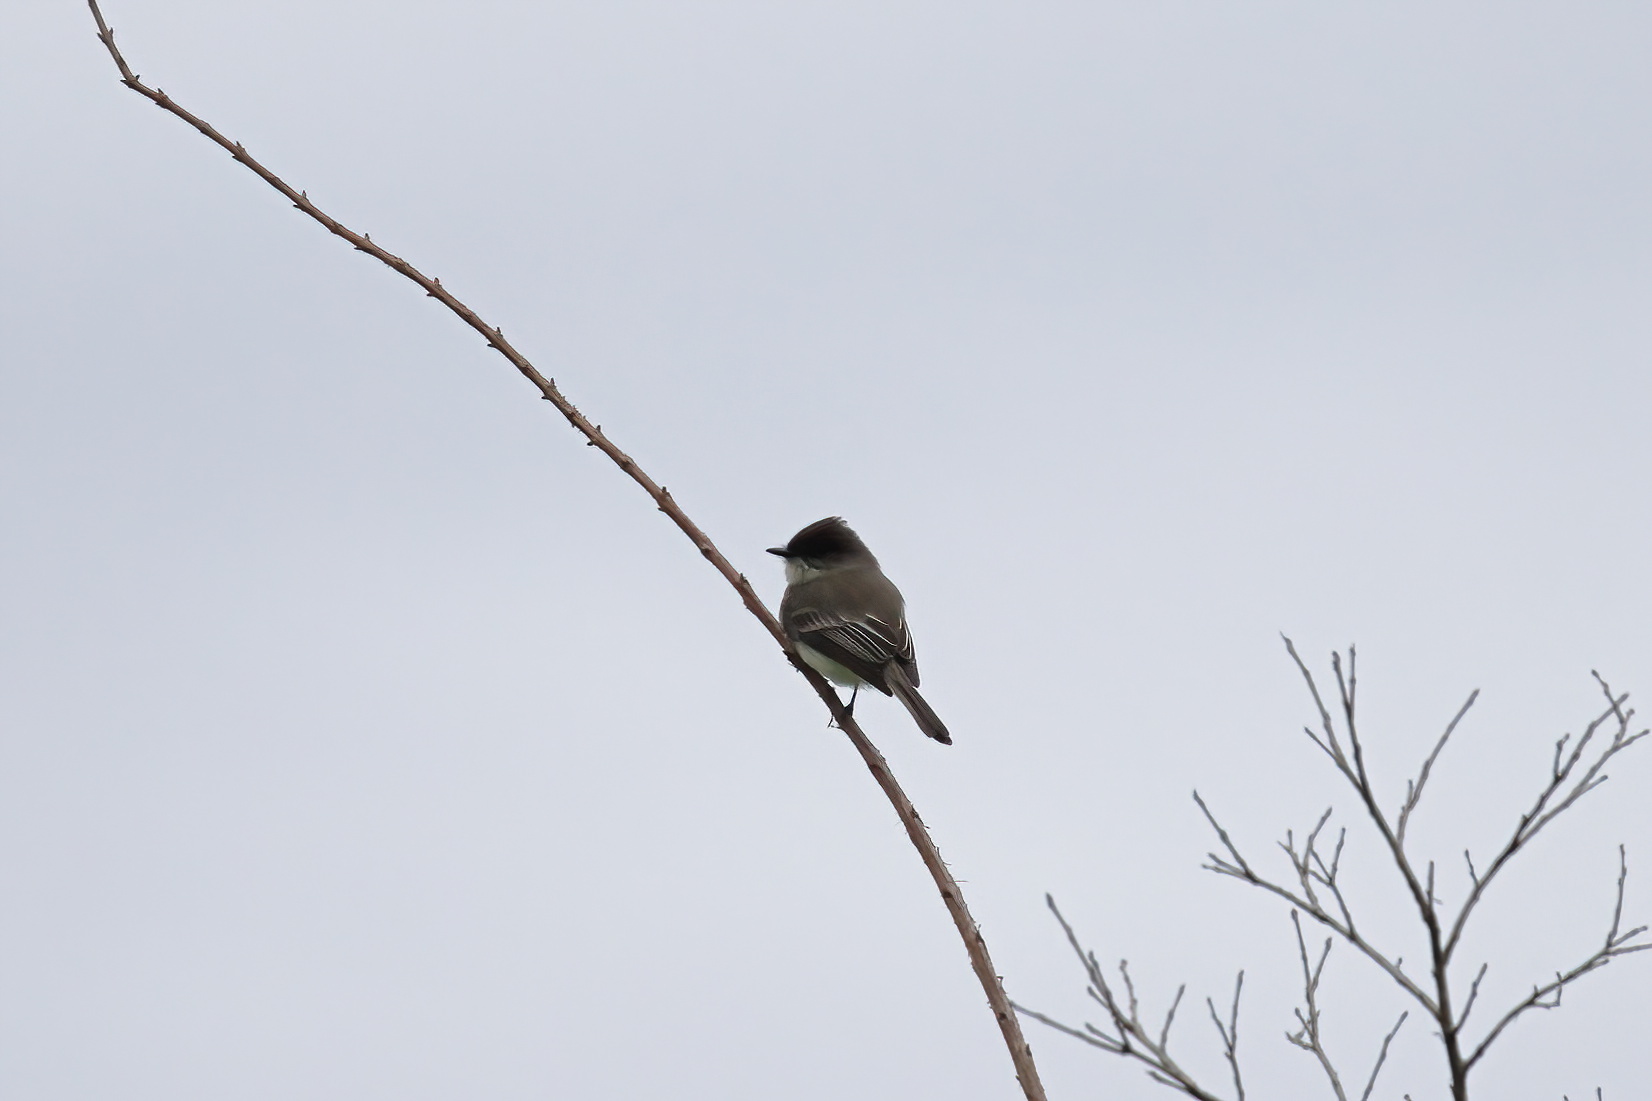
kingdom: Animalia
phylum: Chordata
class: Aves
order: Passeriformes
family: Tyrannidae
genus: Sayornis
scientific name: Sayornis phoebe
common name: Eastern phoebe
